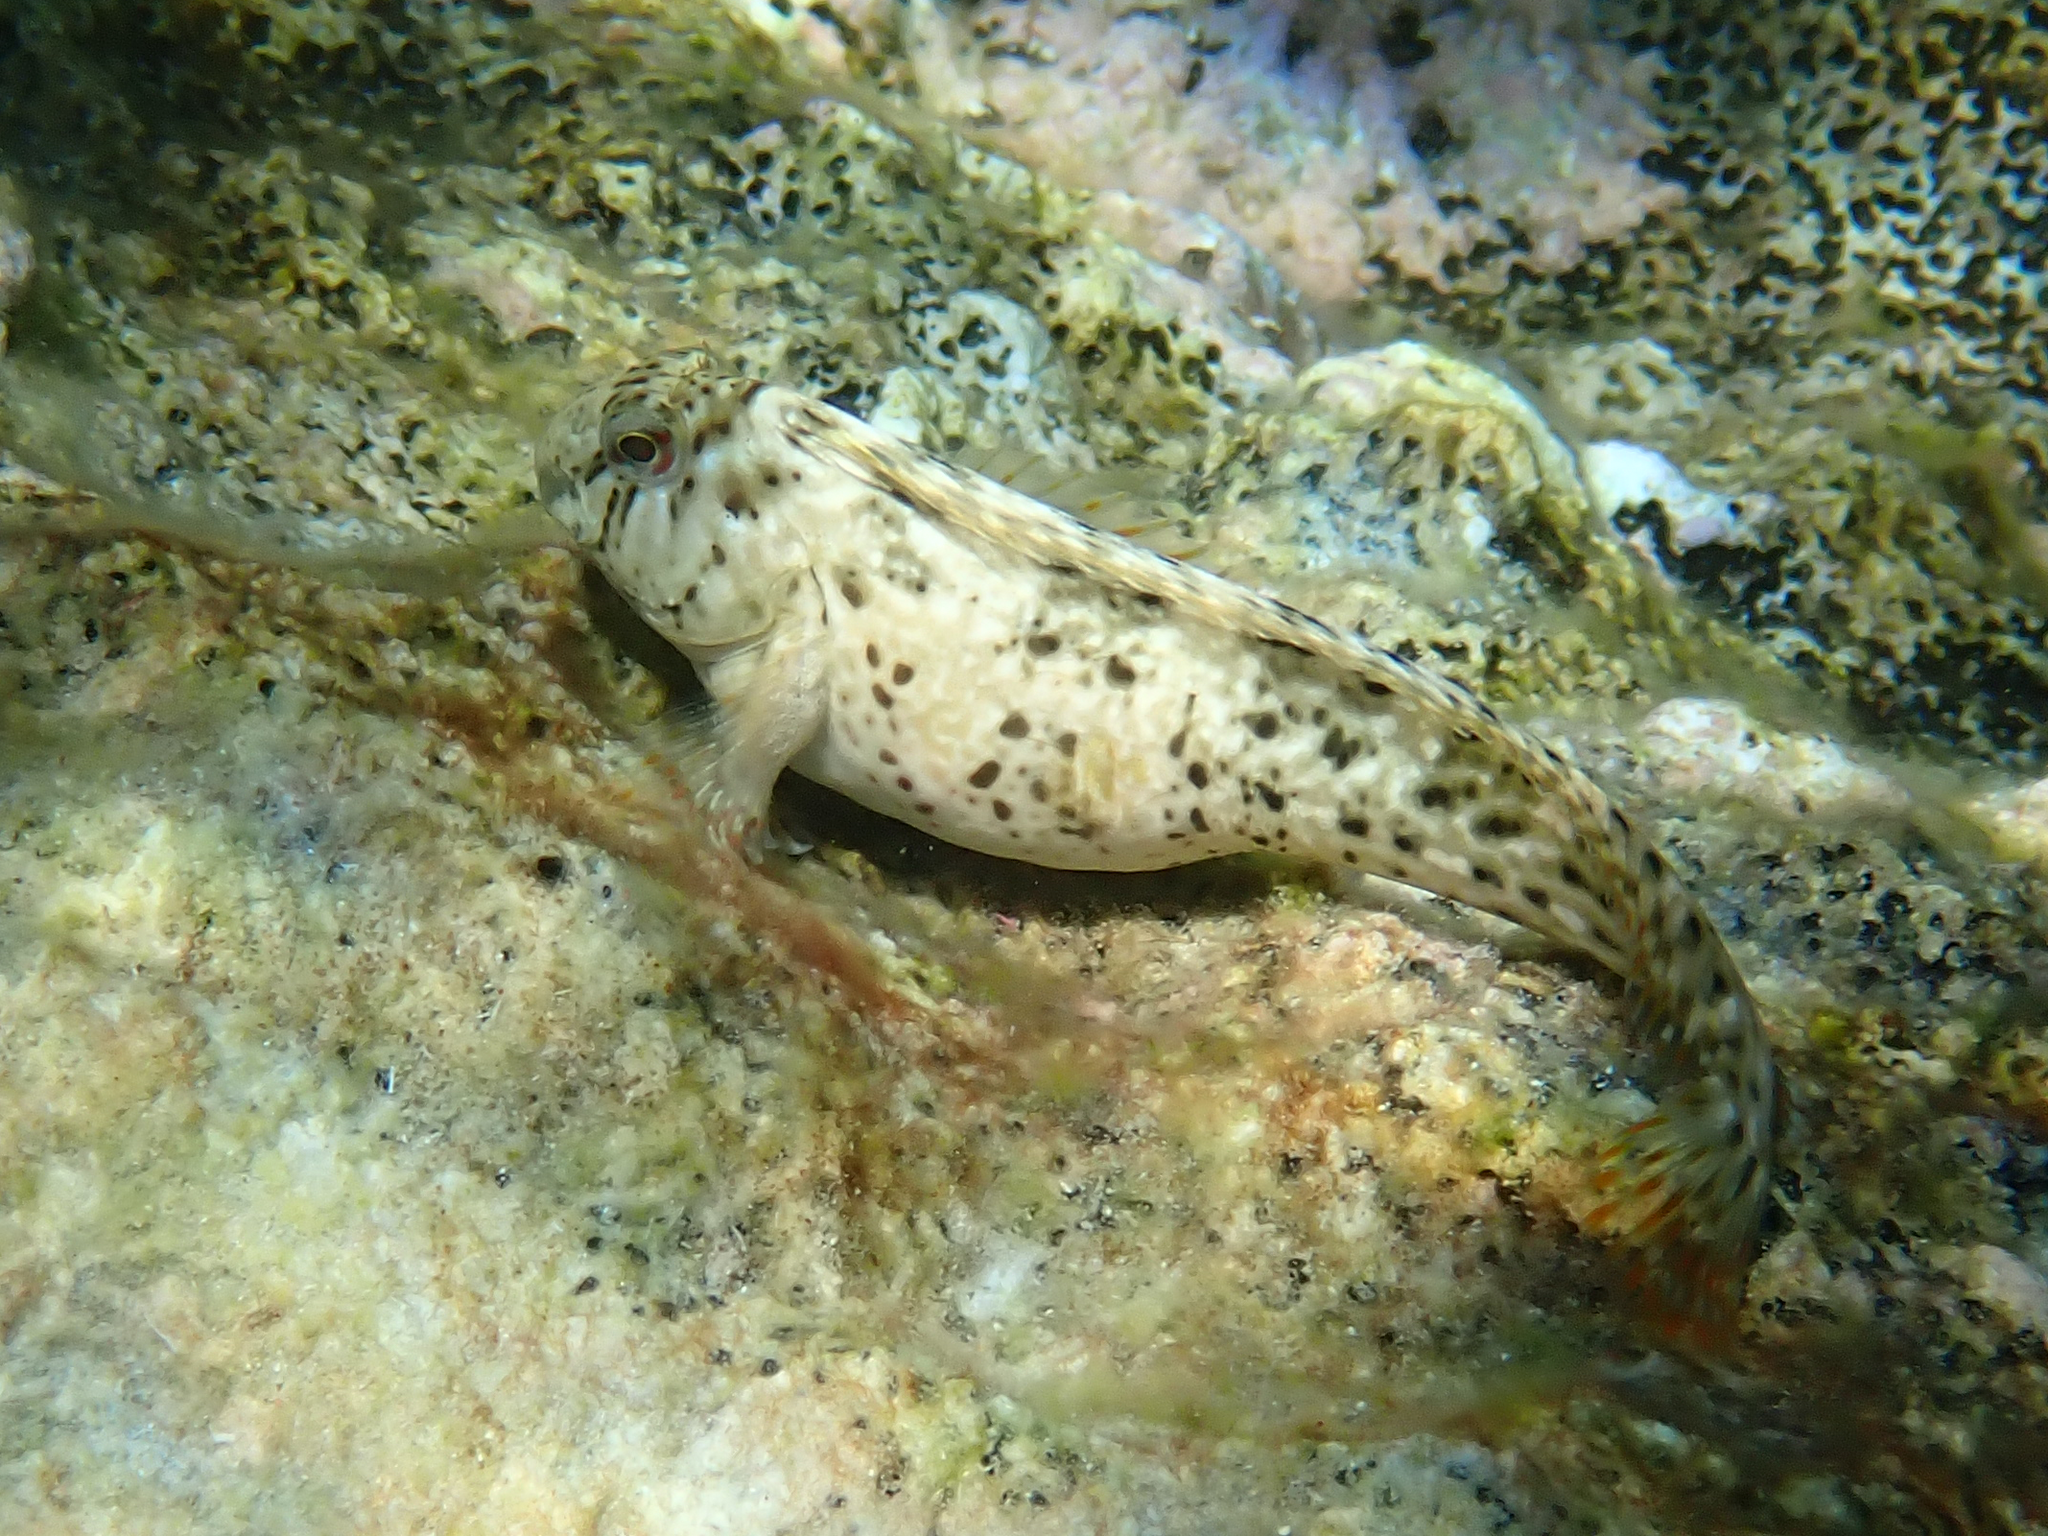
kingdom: Animalia
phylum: Chordata
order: Perciformes
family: Blenniidae
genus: Parablennius
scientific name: Parablennius sanguinolentus
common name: Black sea blenny
